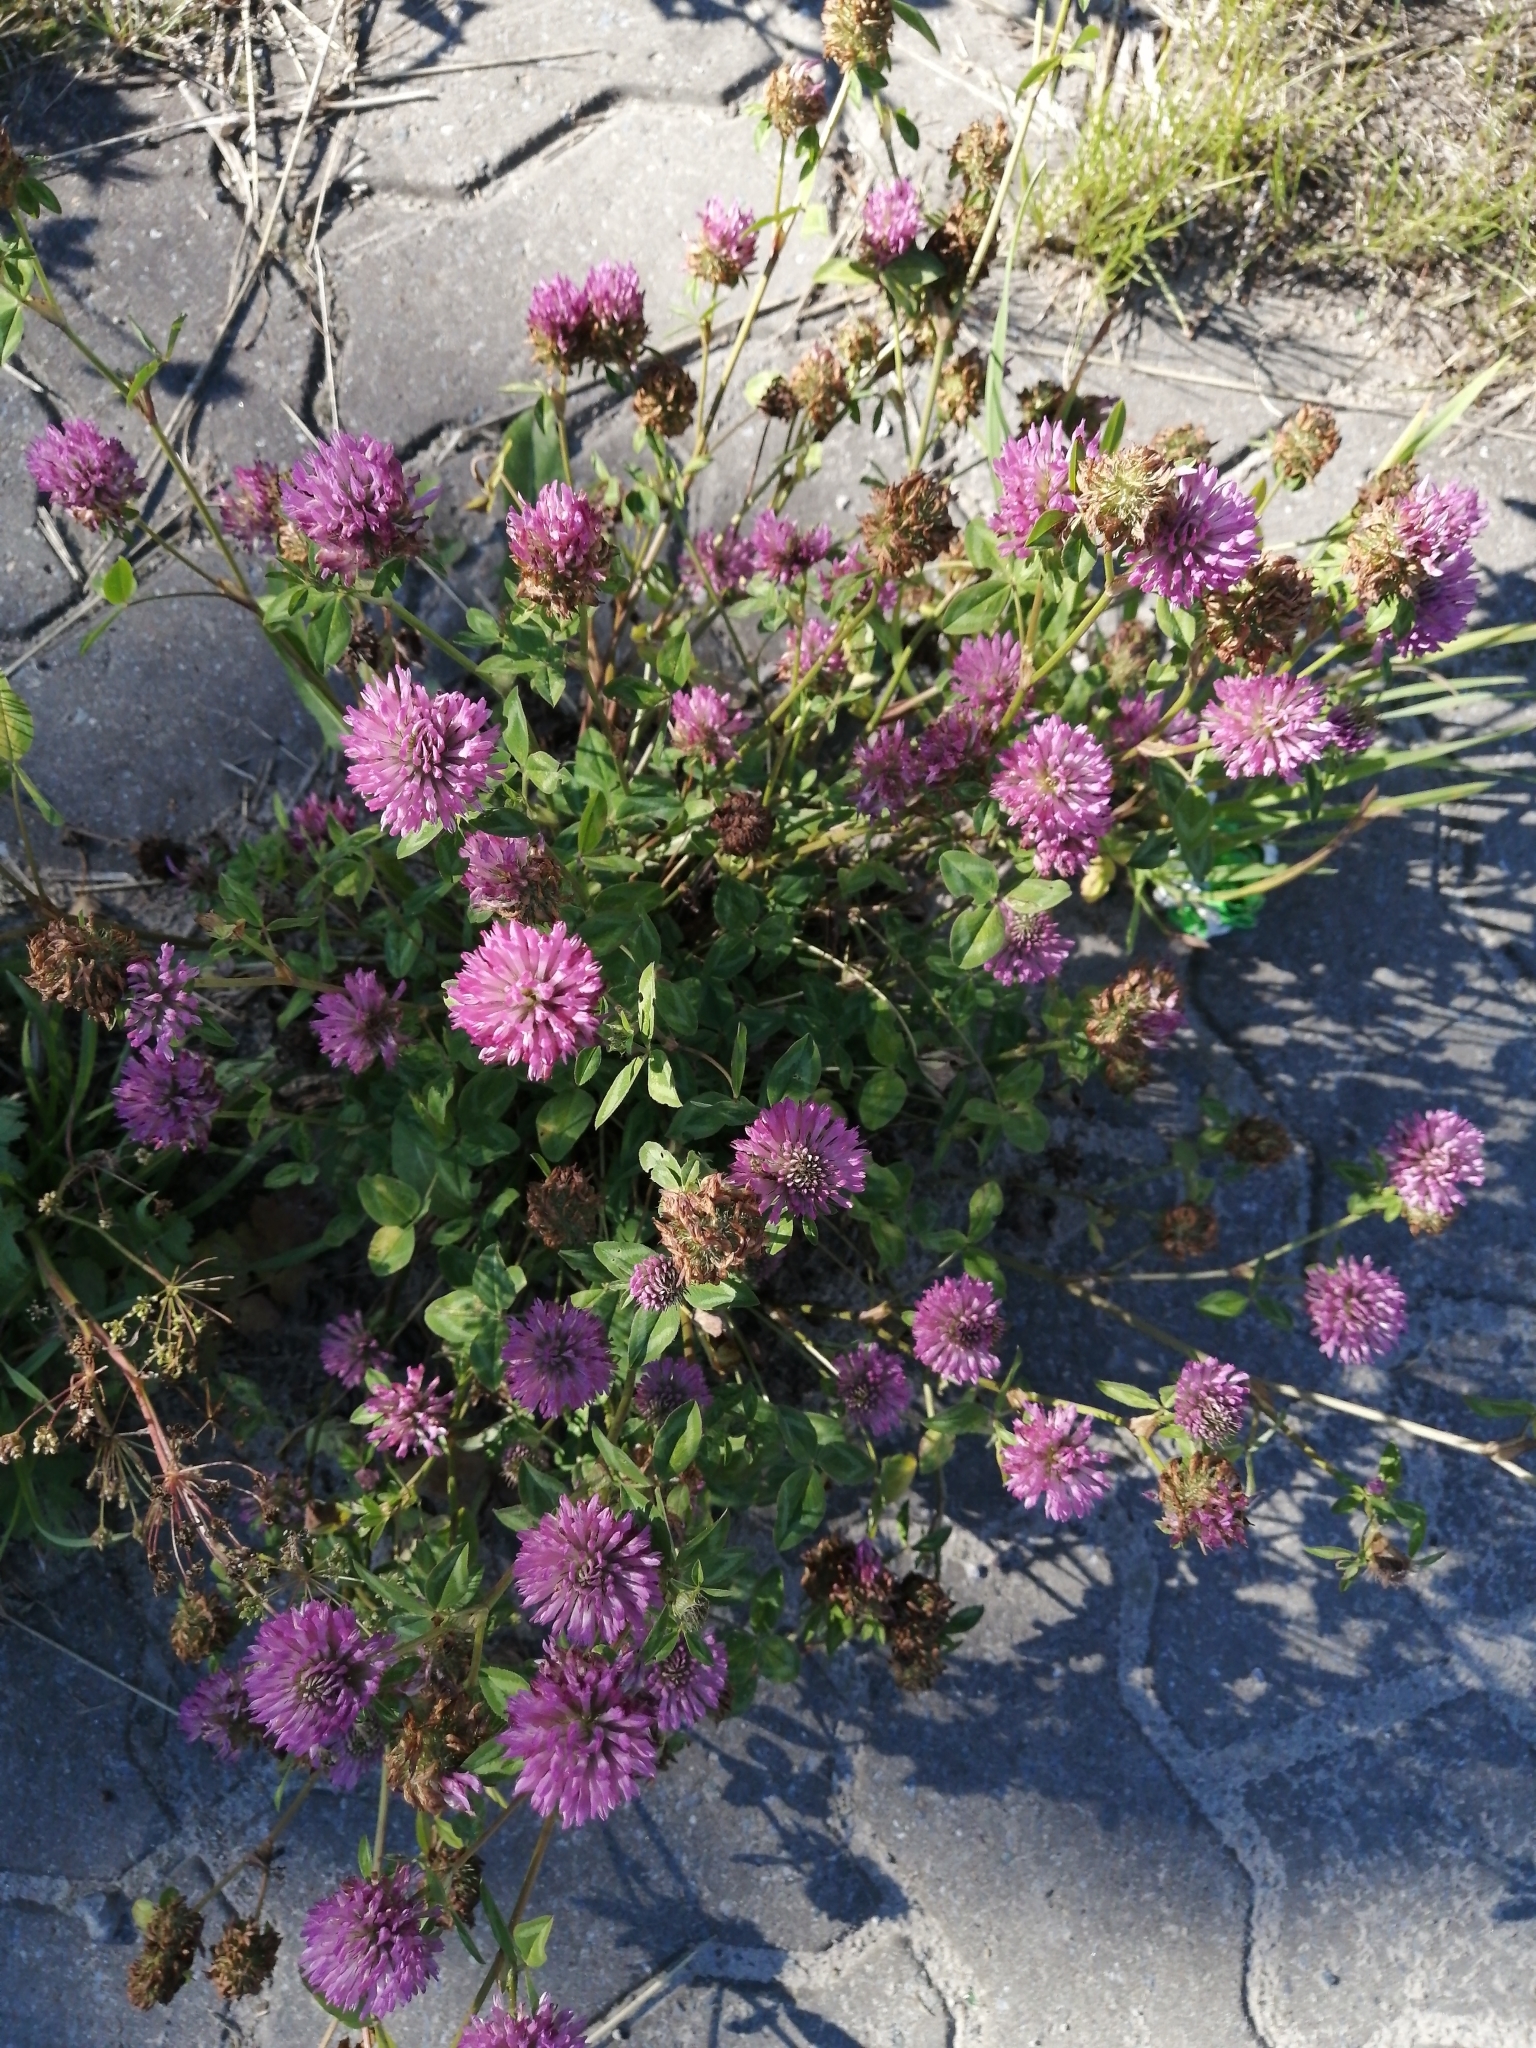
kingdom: Plantae
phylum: Tracheophyta
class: Magnoliopsida
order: Fabales
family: Fabaceae
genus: Trifolium
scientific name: Trifolium pratense
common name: Red clover
